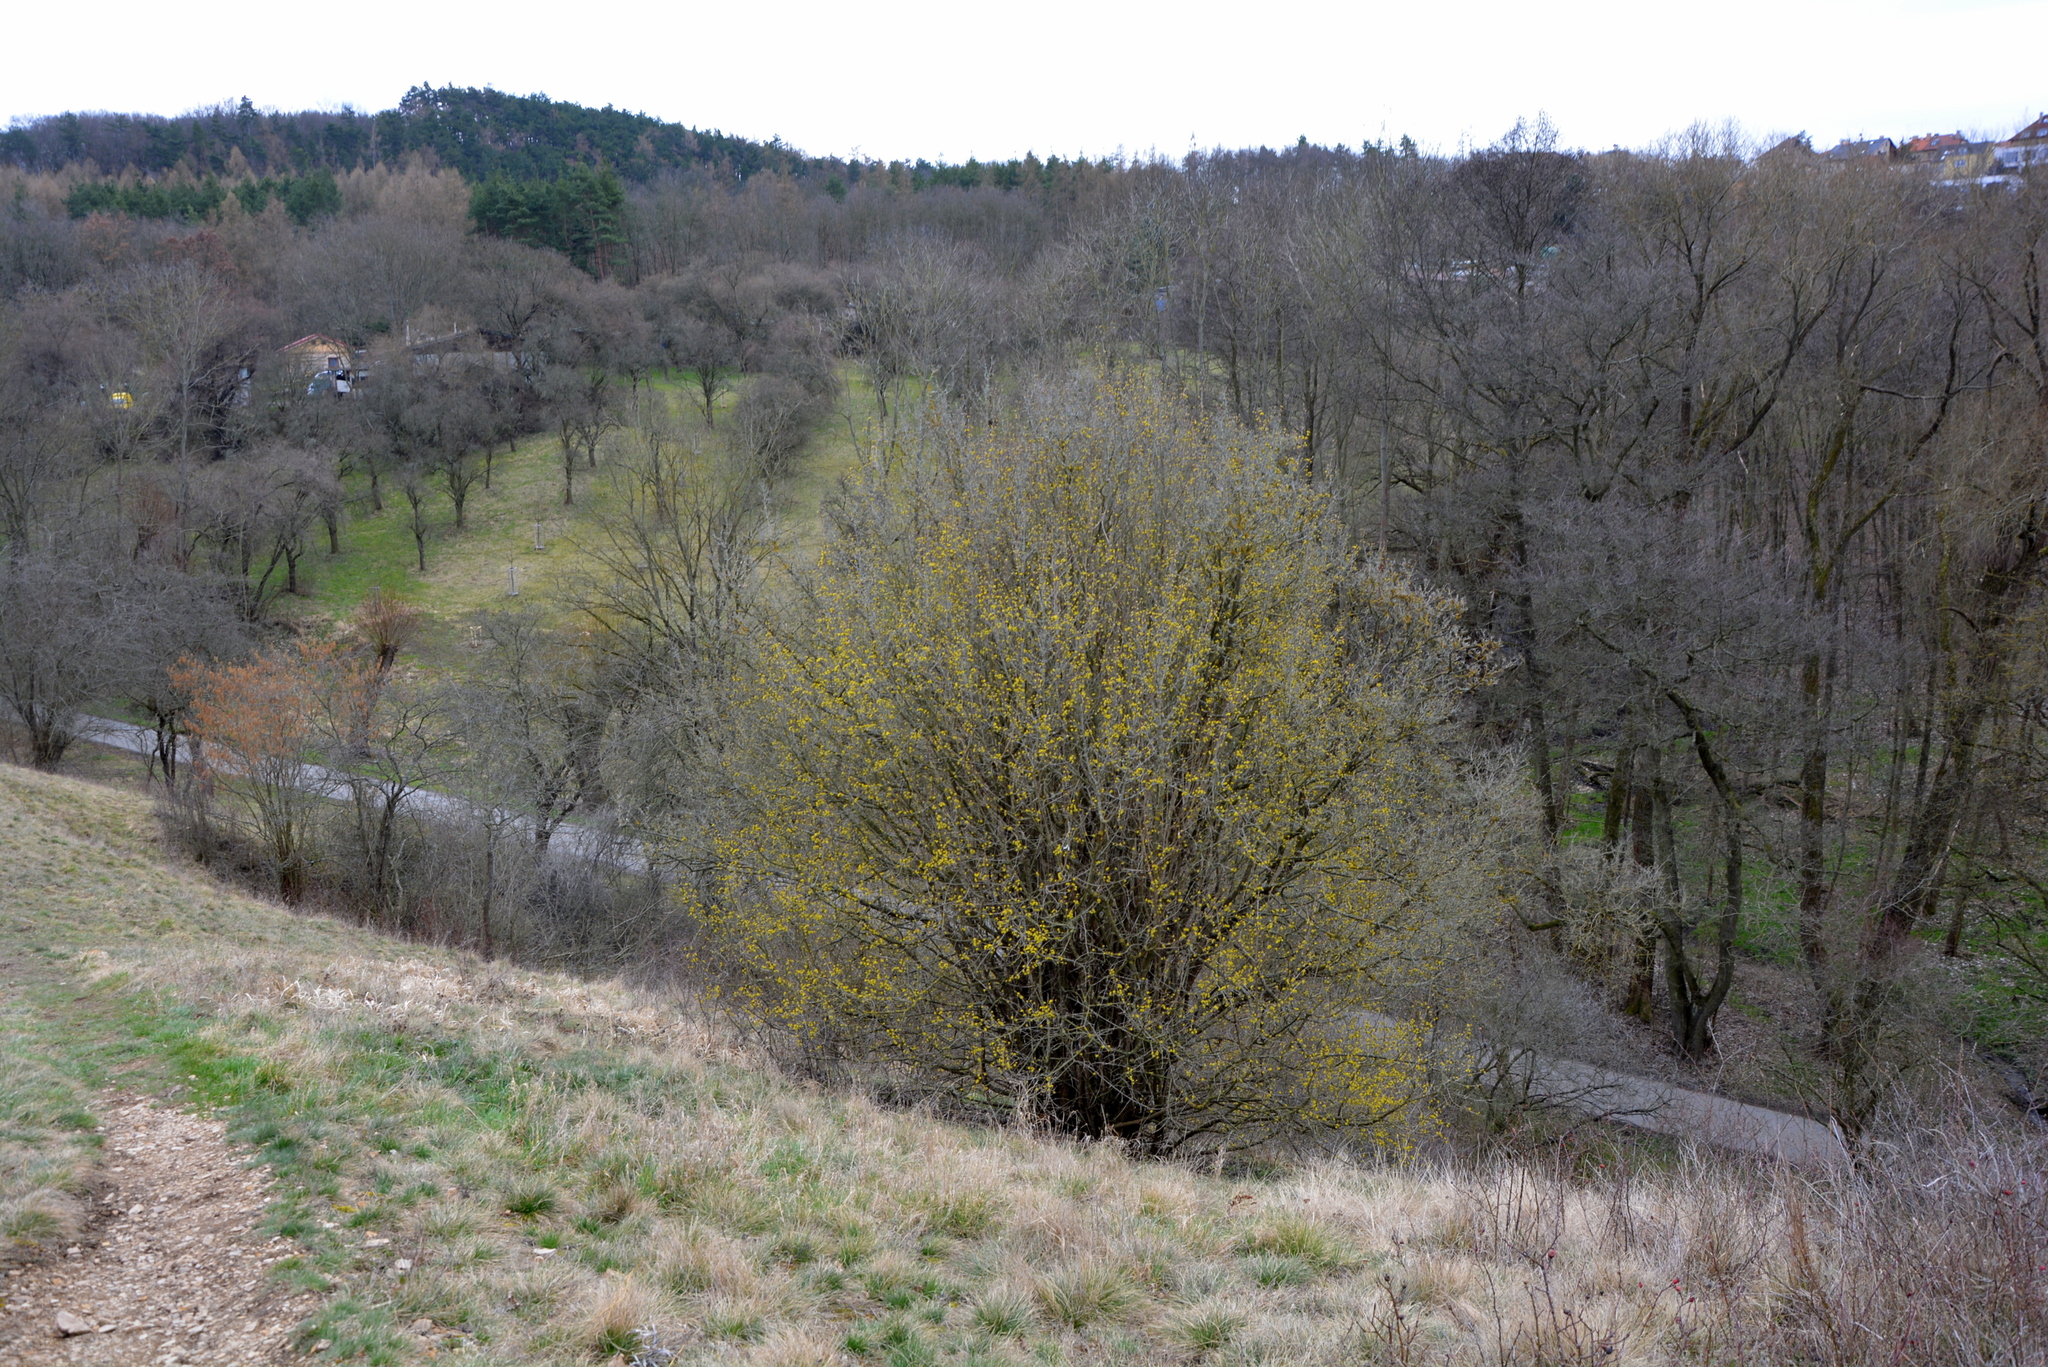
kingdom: Plantae
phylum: Tracheophyta
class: Magnoliopsida
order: Cornales
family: Cornaceae
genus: Cornus
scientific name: Cornus mas
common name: Cornelian-cherry
